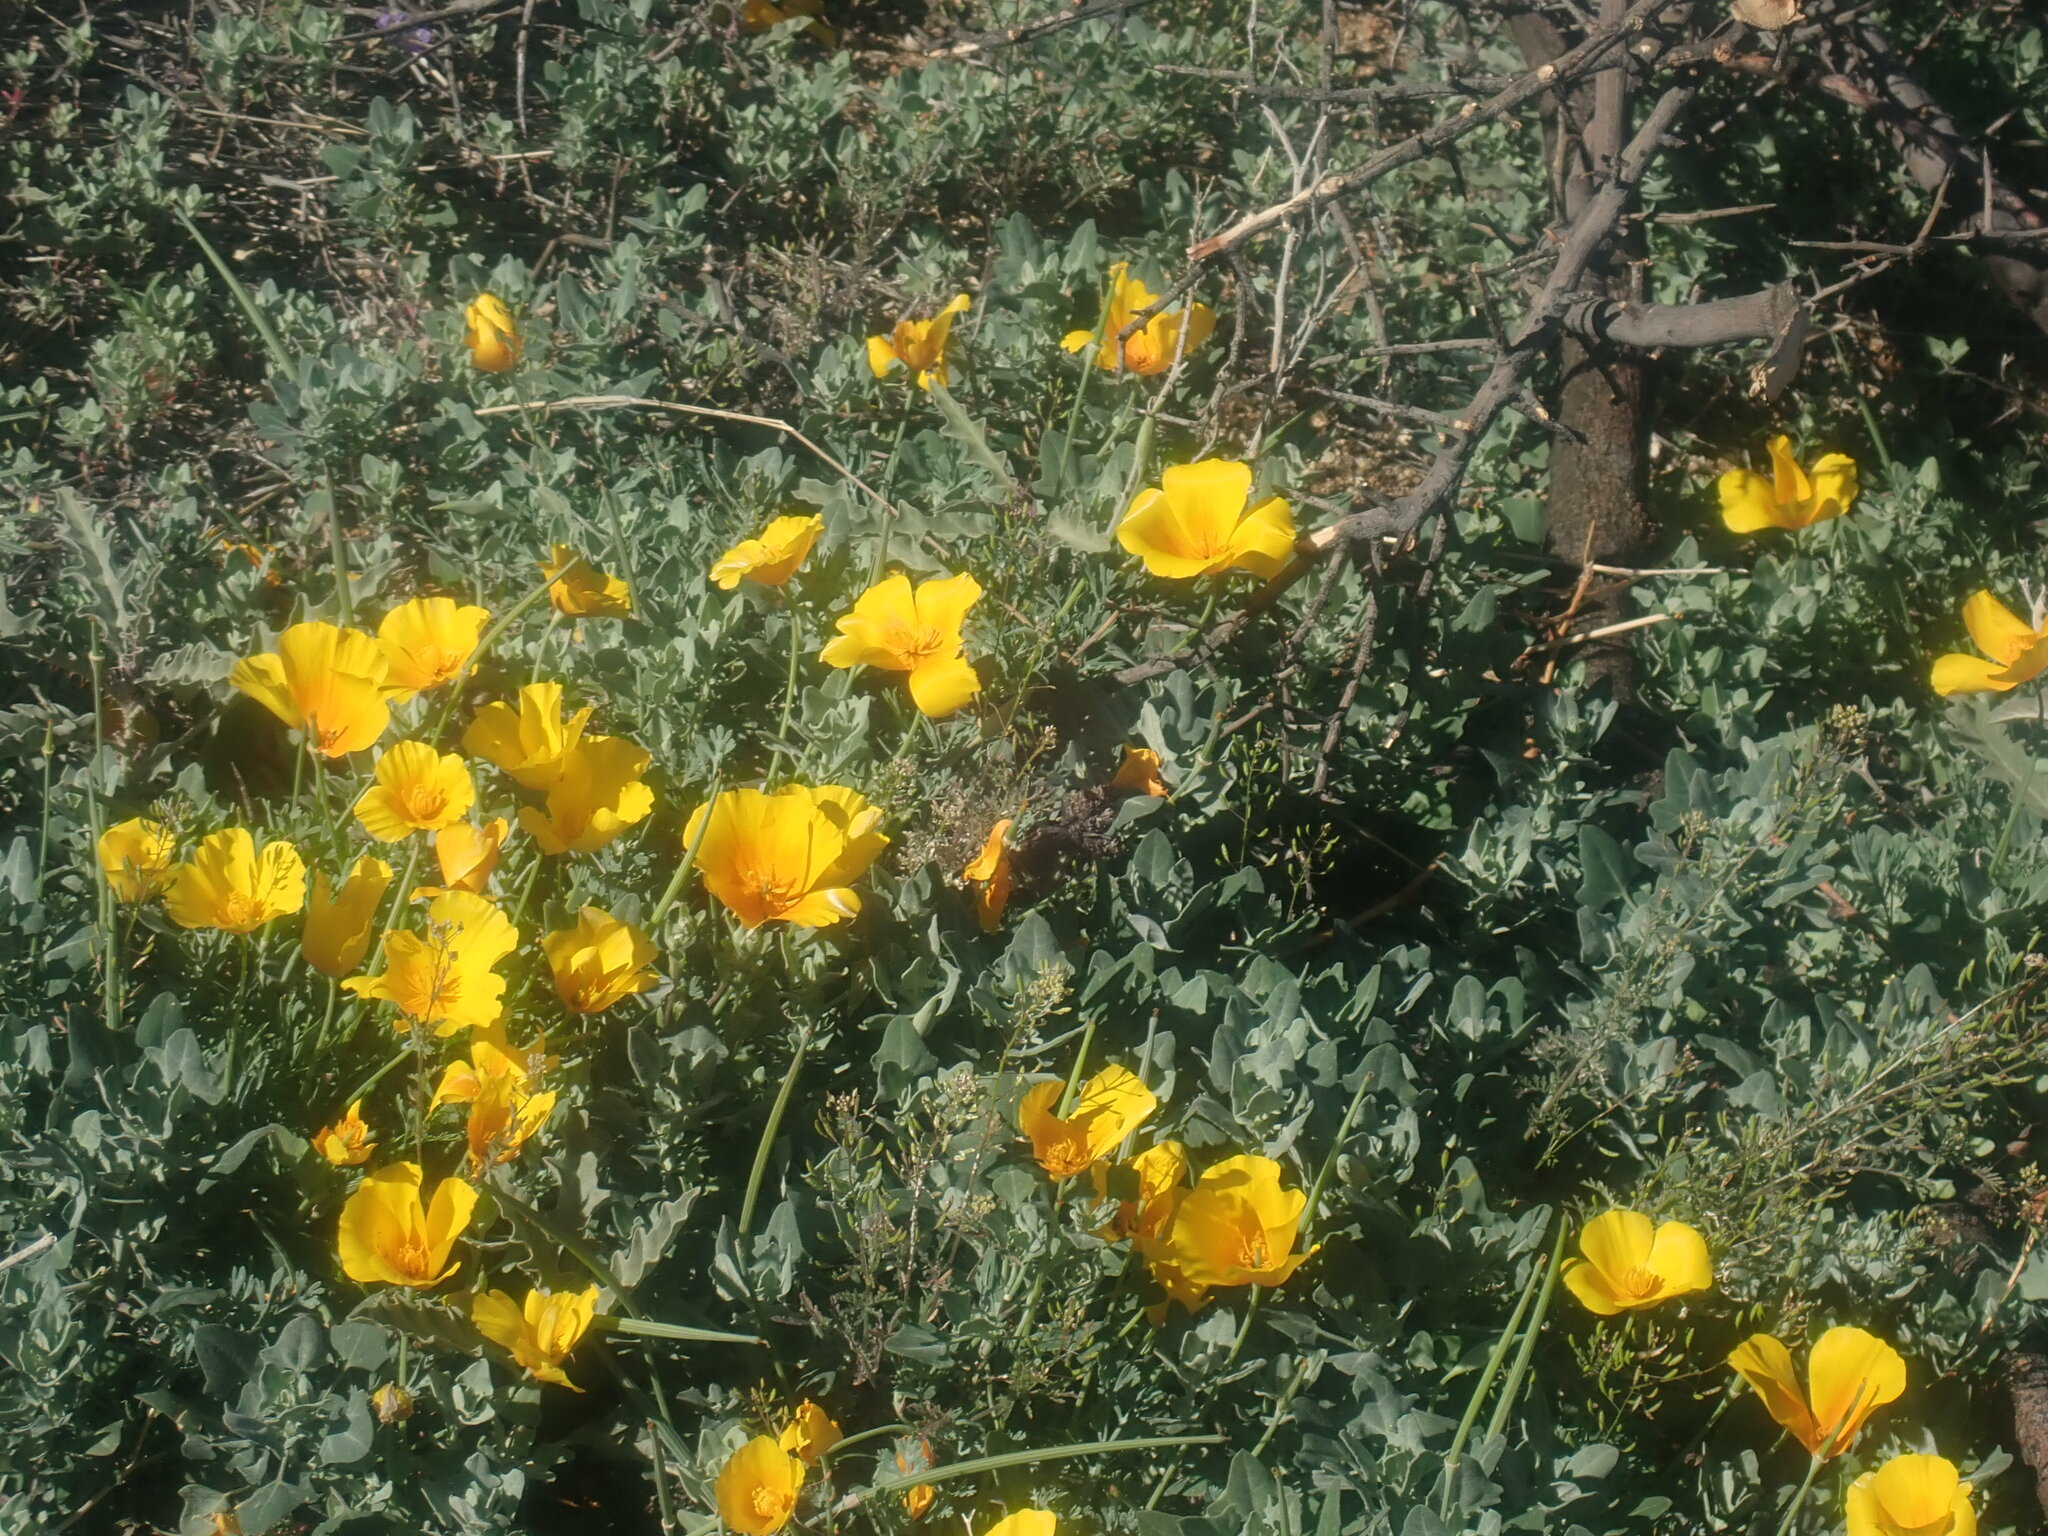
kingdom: Plantae
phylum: Tracheophyta
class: Magnoliopsida
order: Ranunculales
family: Papaveraceae
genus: Eschscholzia
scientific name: Eschscholzia californica
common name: California poppy
